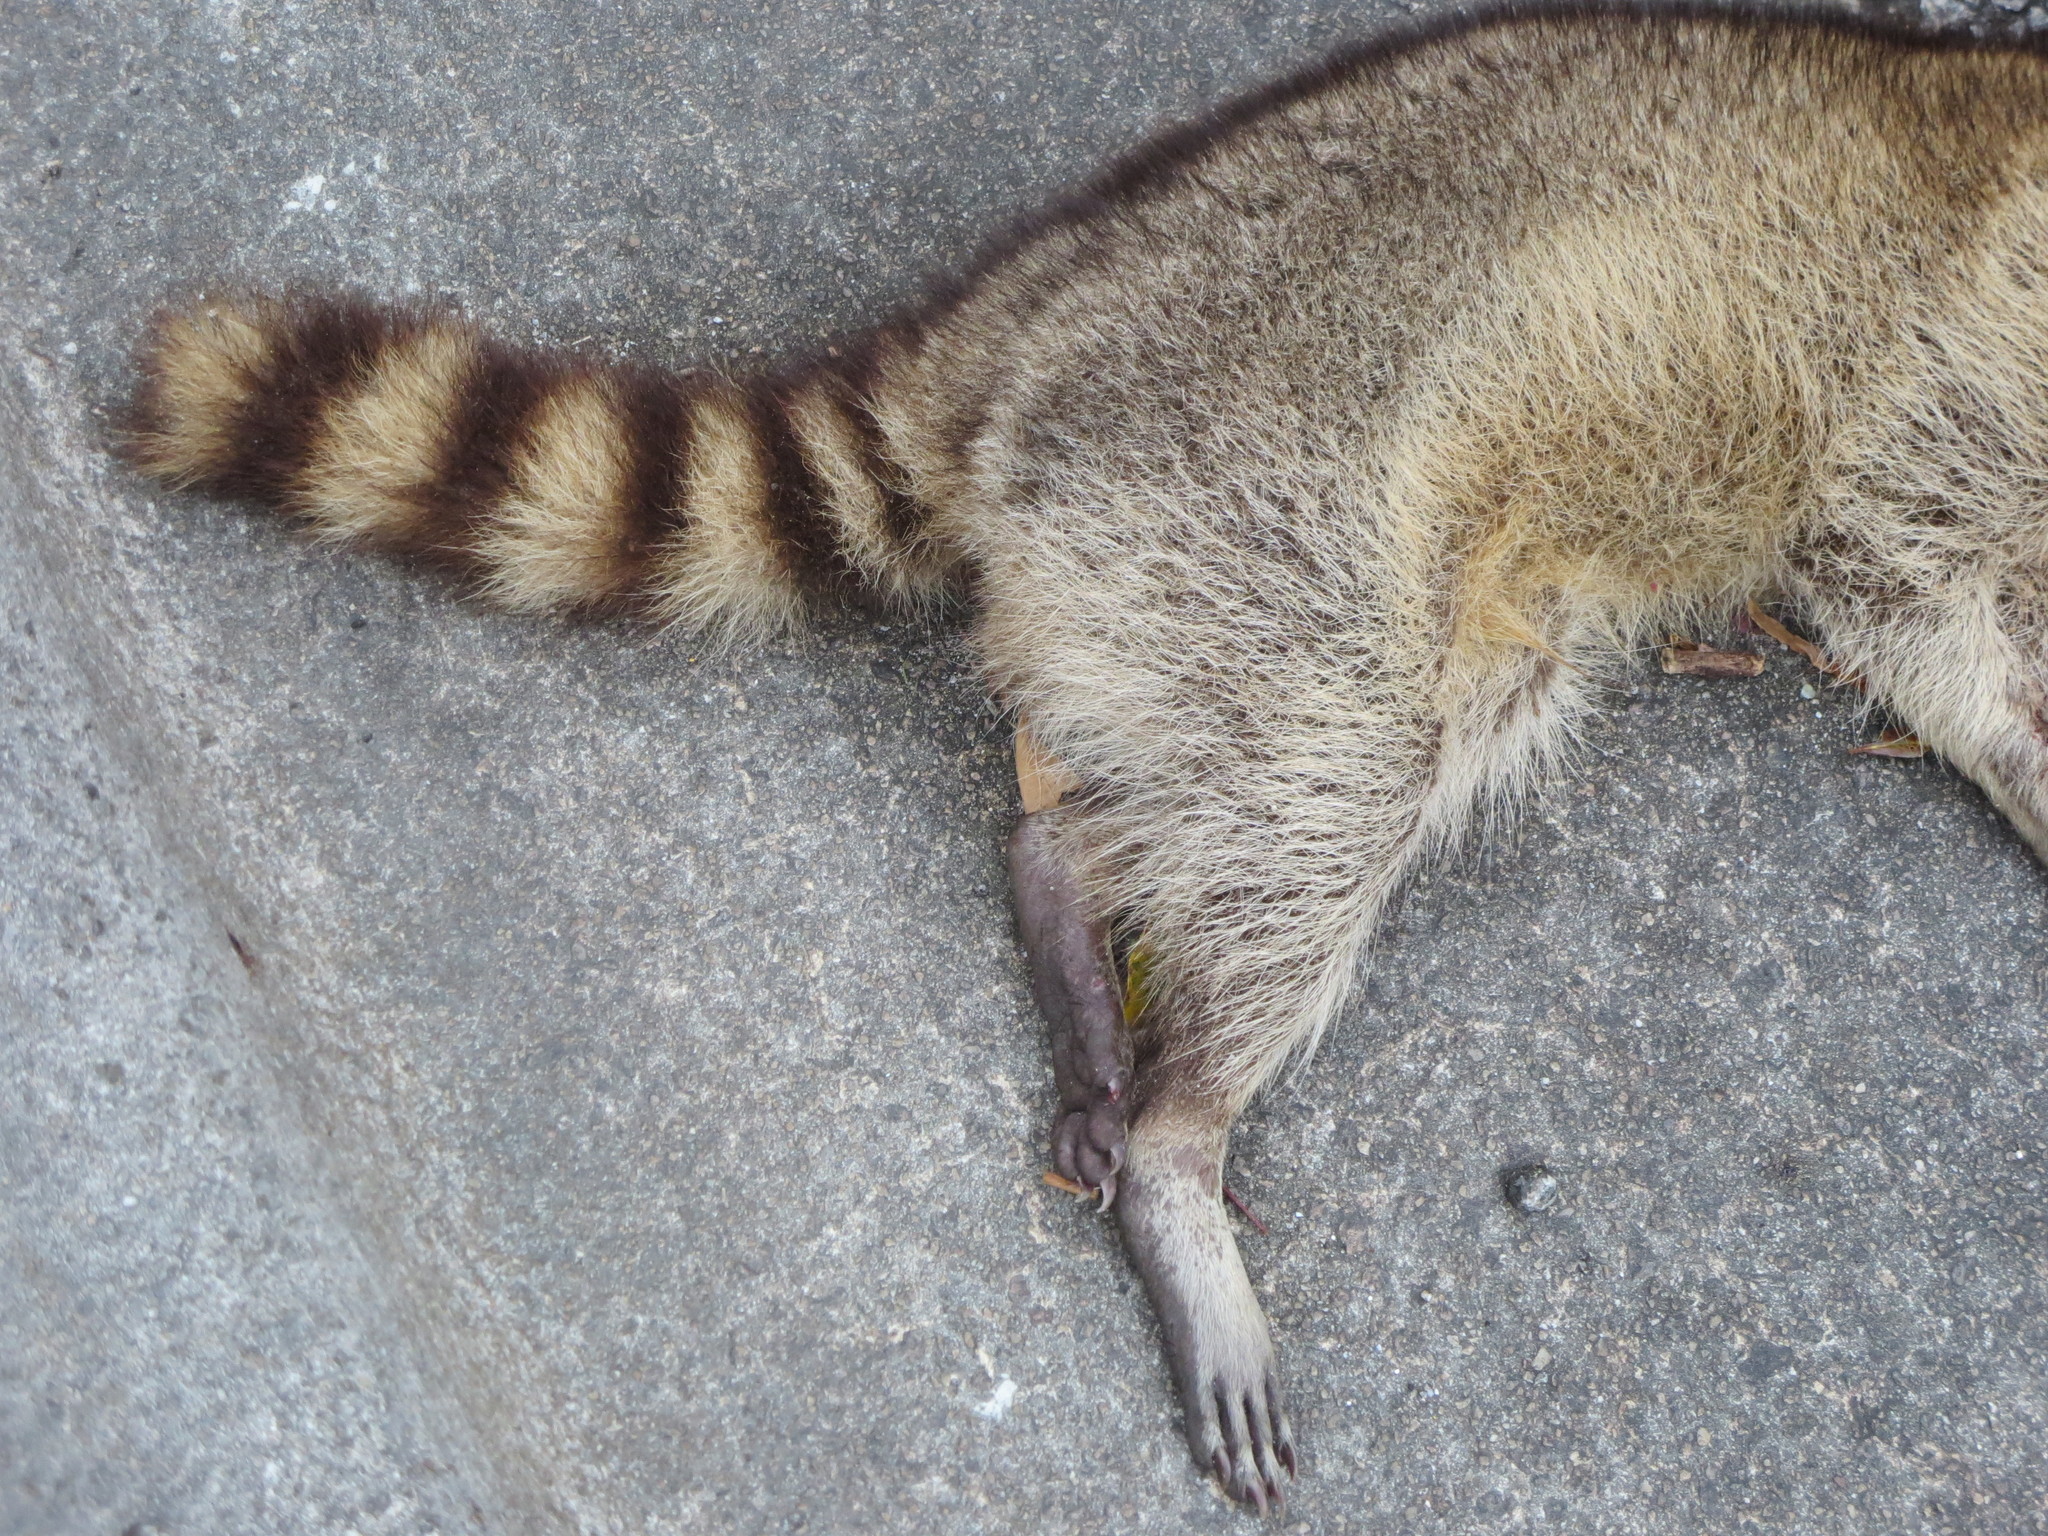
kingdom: Animalia
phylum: Chordata
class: Mammalia
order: Carnivora
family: Procyonidae
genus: Procyon
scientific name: Procyon lotor
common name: Raccoon
